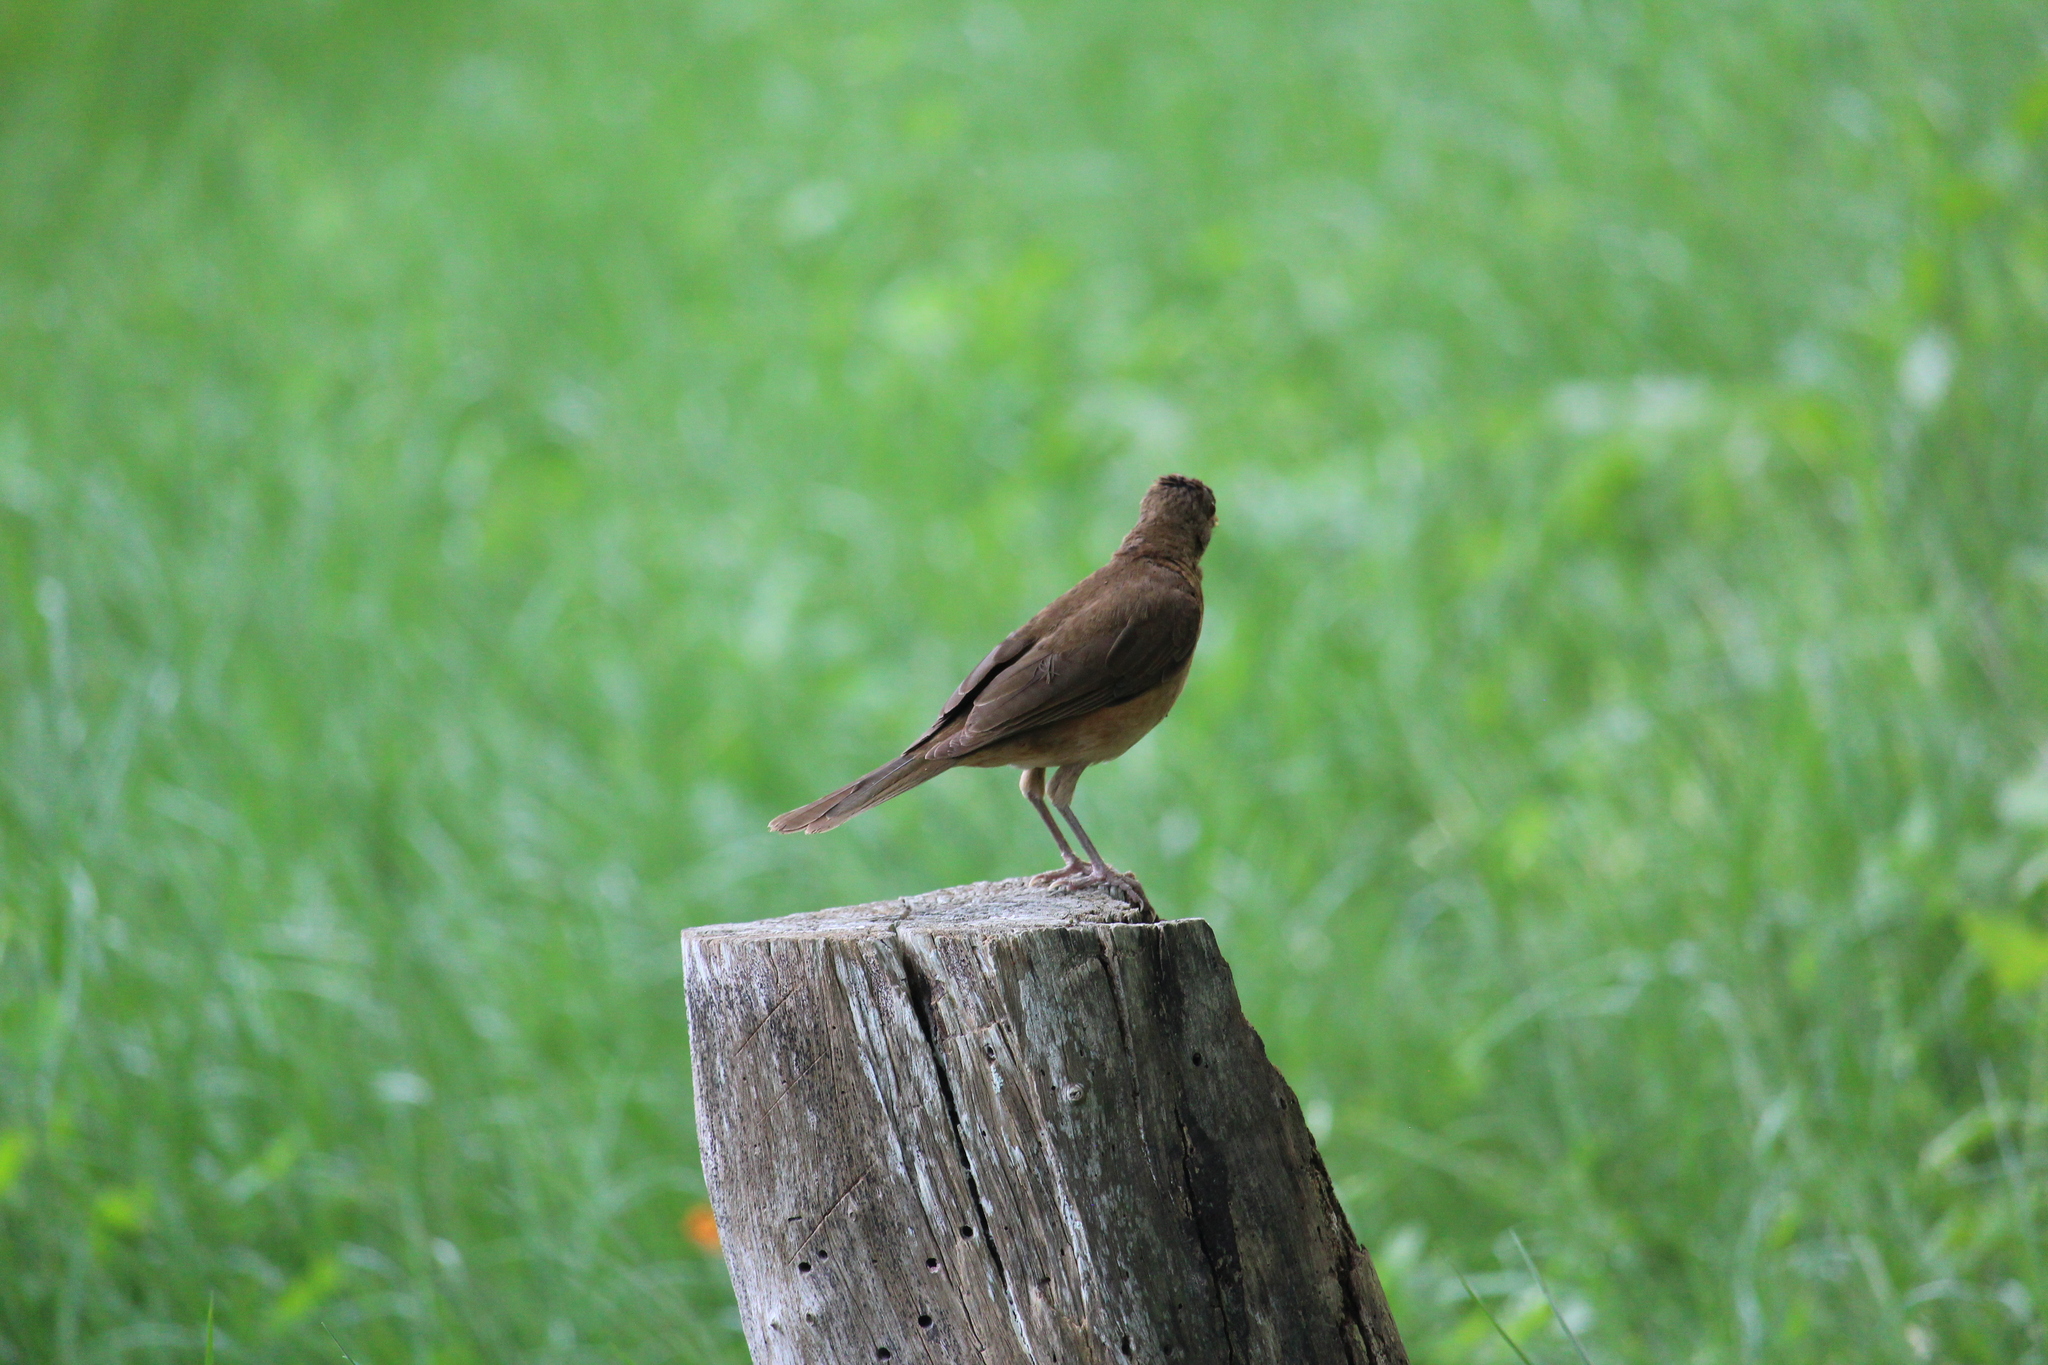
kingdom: Animalia
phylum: Chordata
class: Aves
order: Passeriformes
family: Turdidae
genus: Turdus
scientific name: Turdus grayi
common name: Clay-colored thrush
